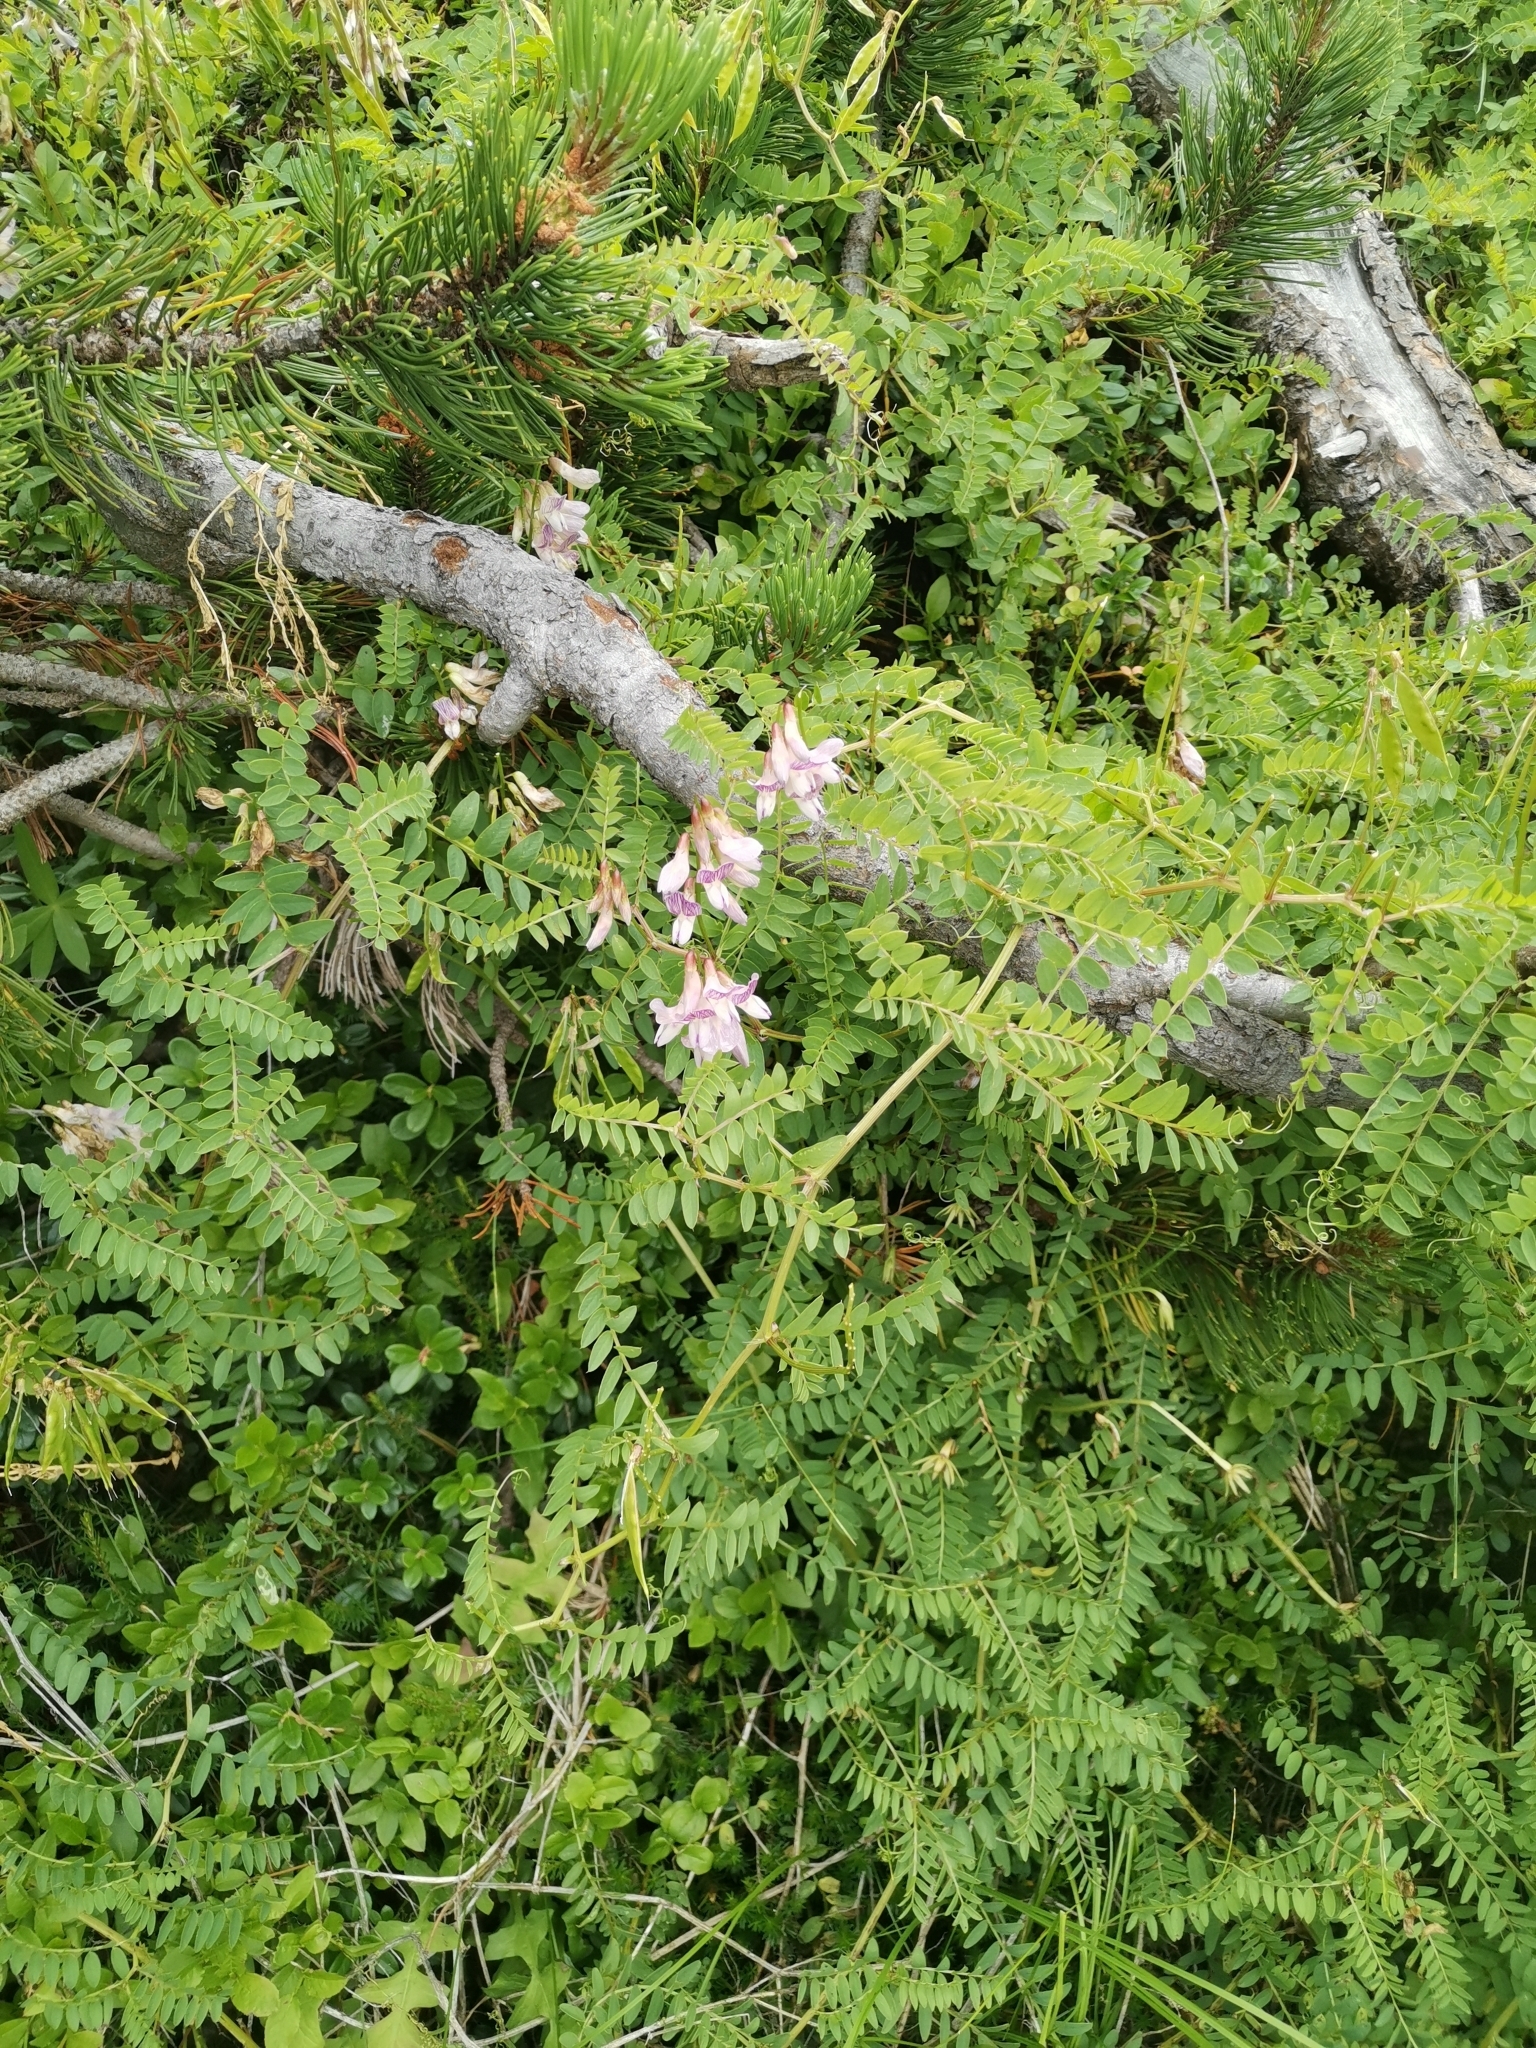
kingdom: Plantae
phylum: Tracheophyta
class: Magnoliopsida
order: Fabales
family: Fabaceae
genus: Vicia
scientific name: Vicia sylvatica
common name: Wood vetch
